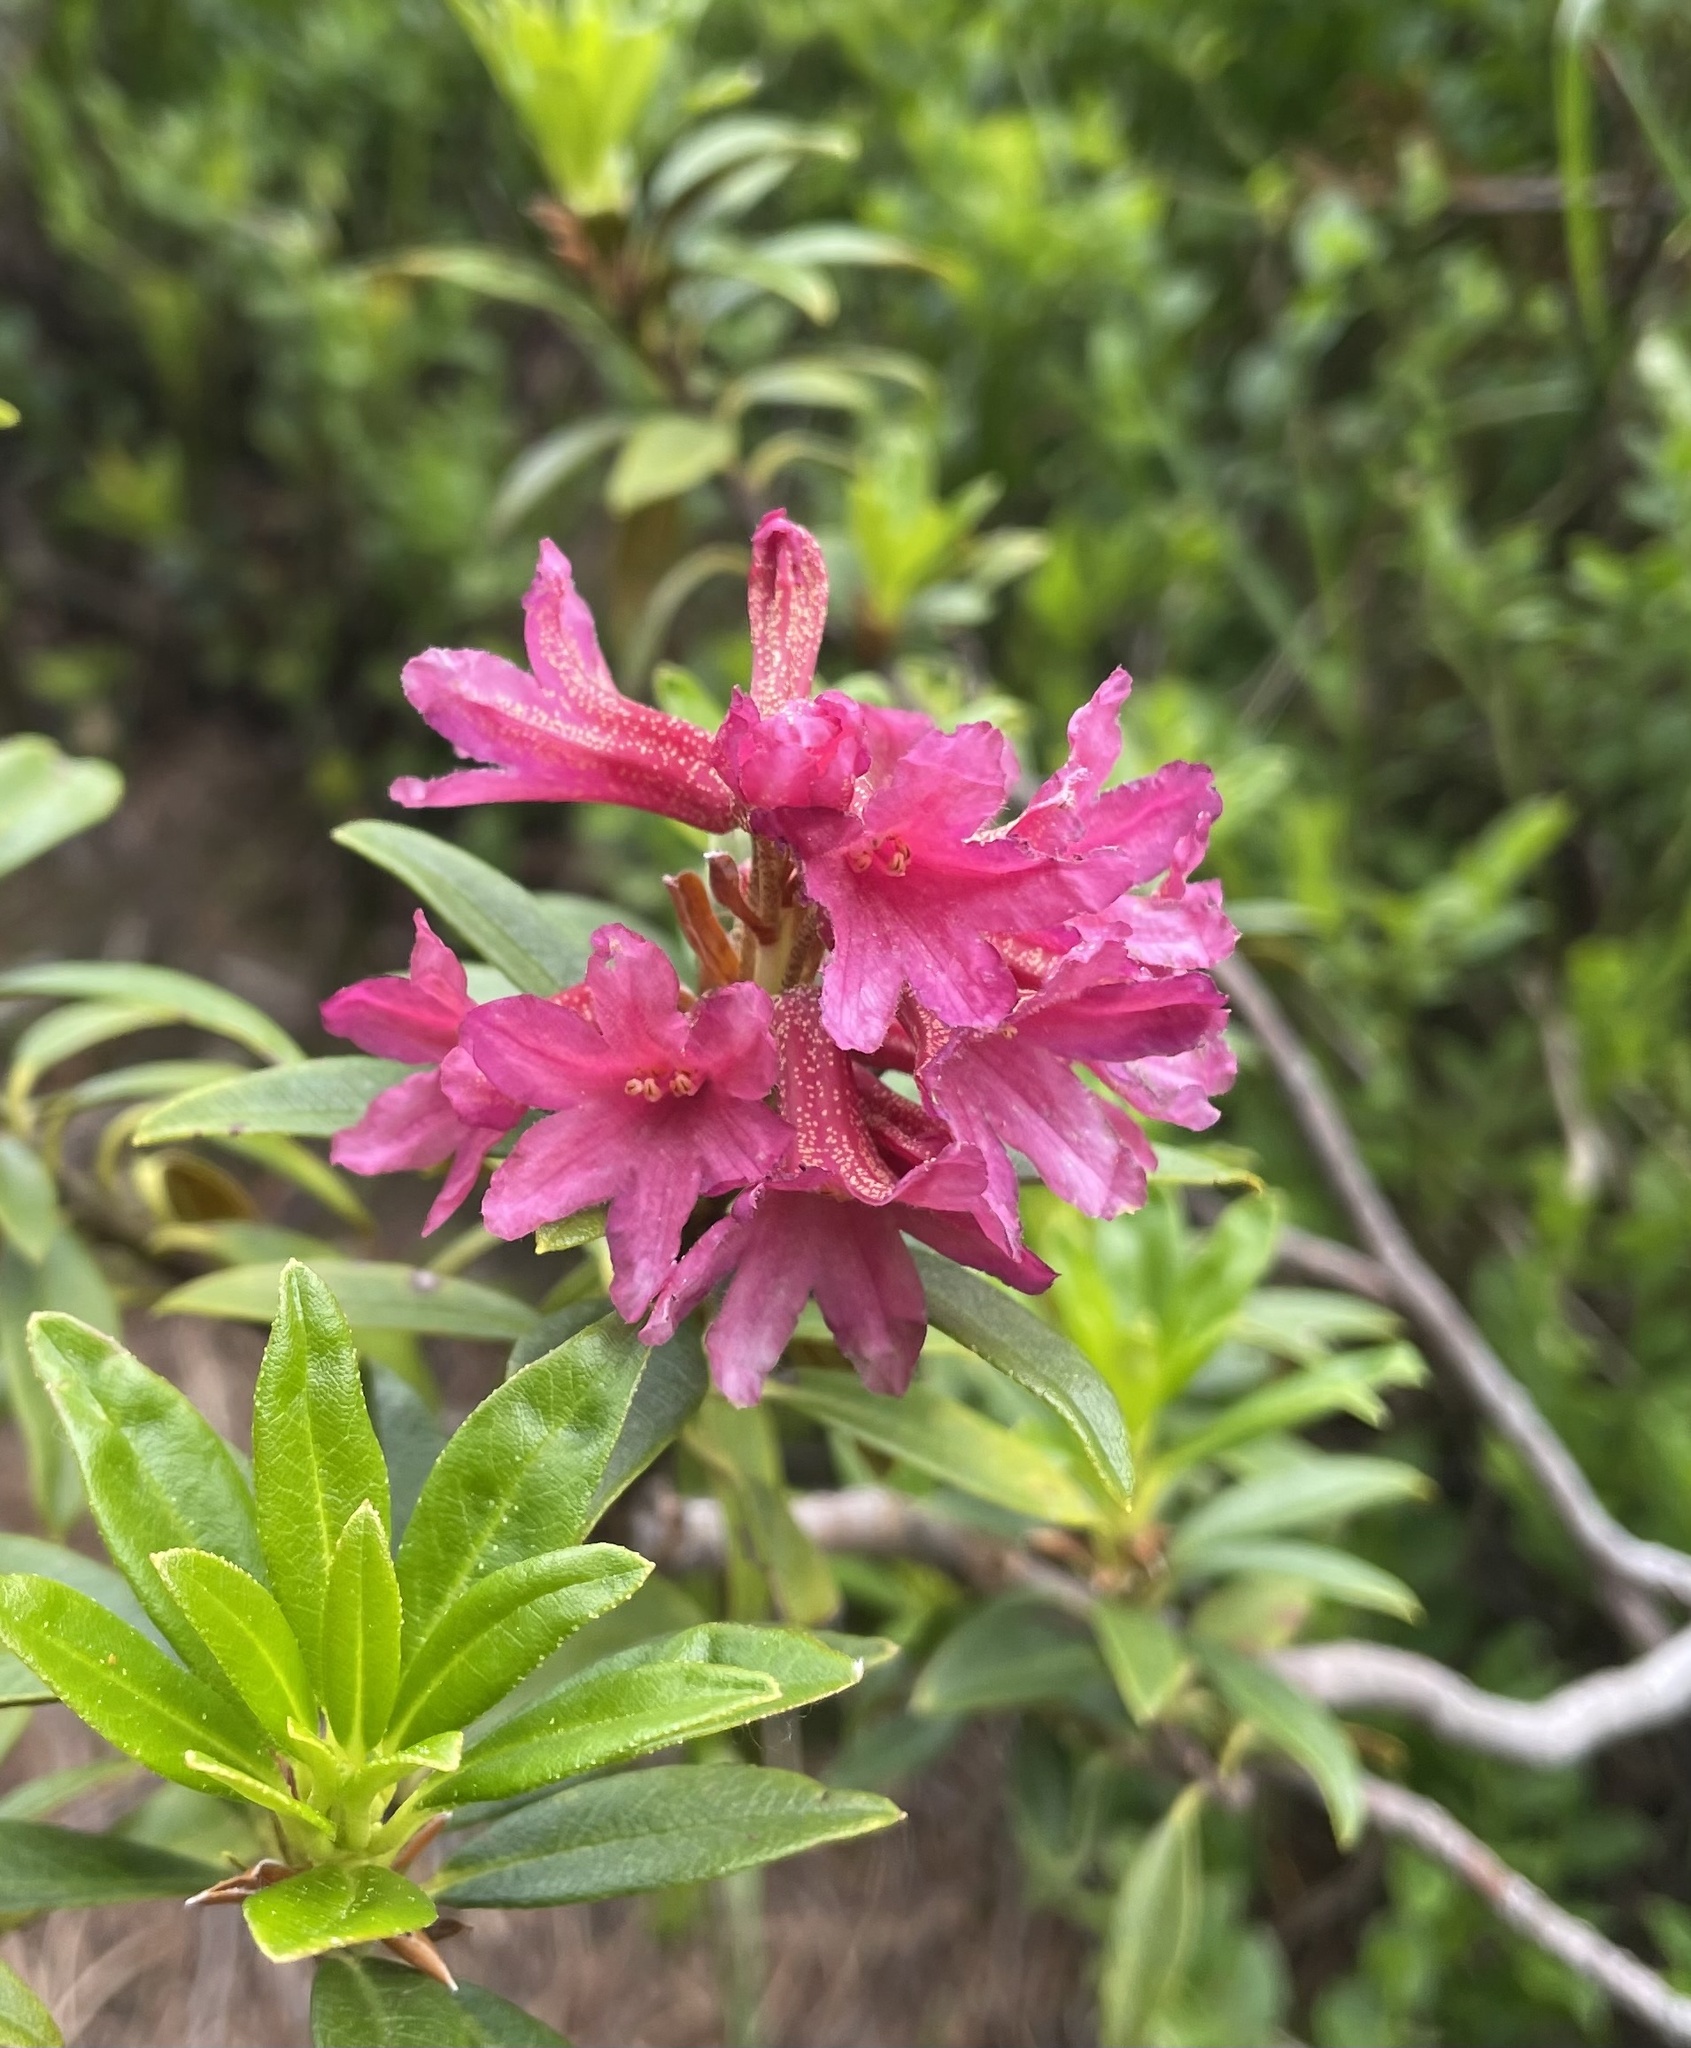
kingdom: Plantae
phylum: Tracheophyta
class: Magnoliopsida
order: Ericales
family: Ericaceae
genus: Rhododendron
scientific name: Rhododendron ferrugineum
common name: Alpenrose
